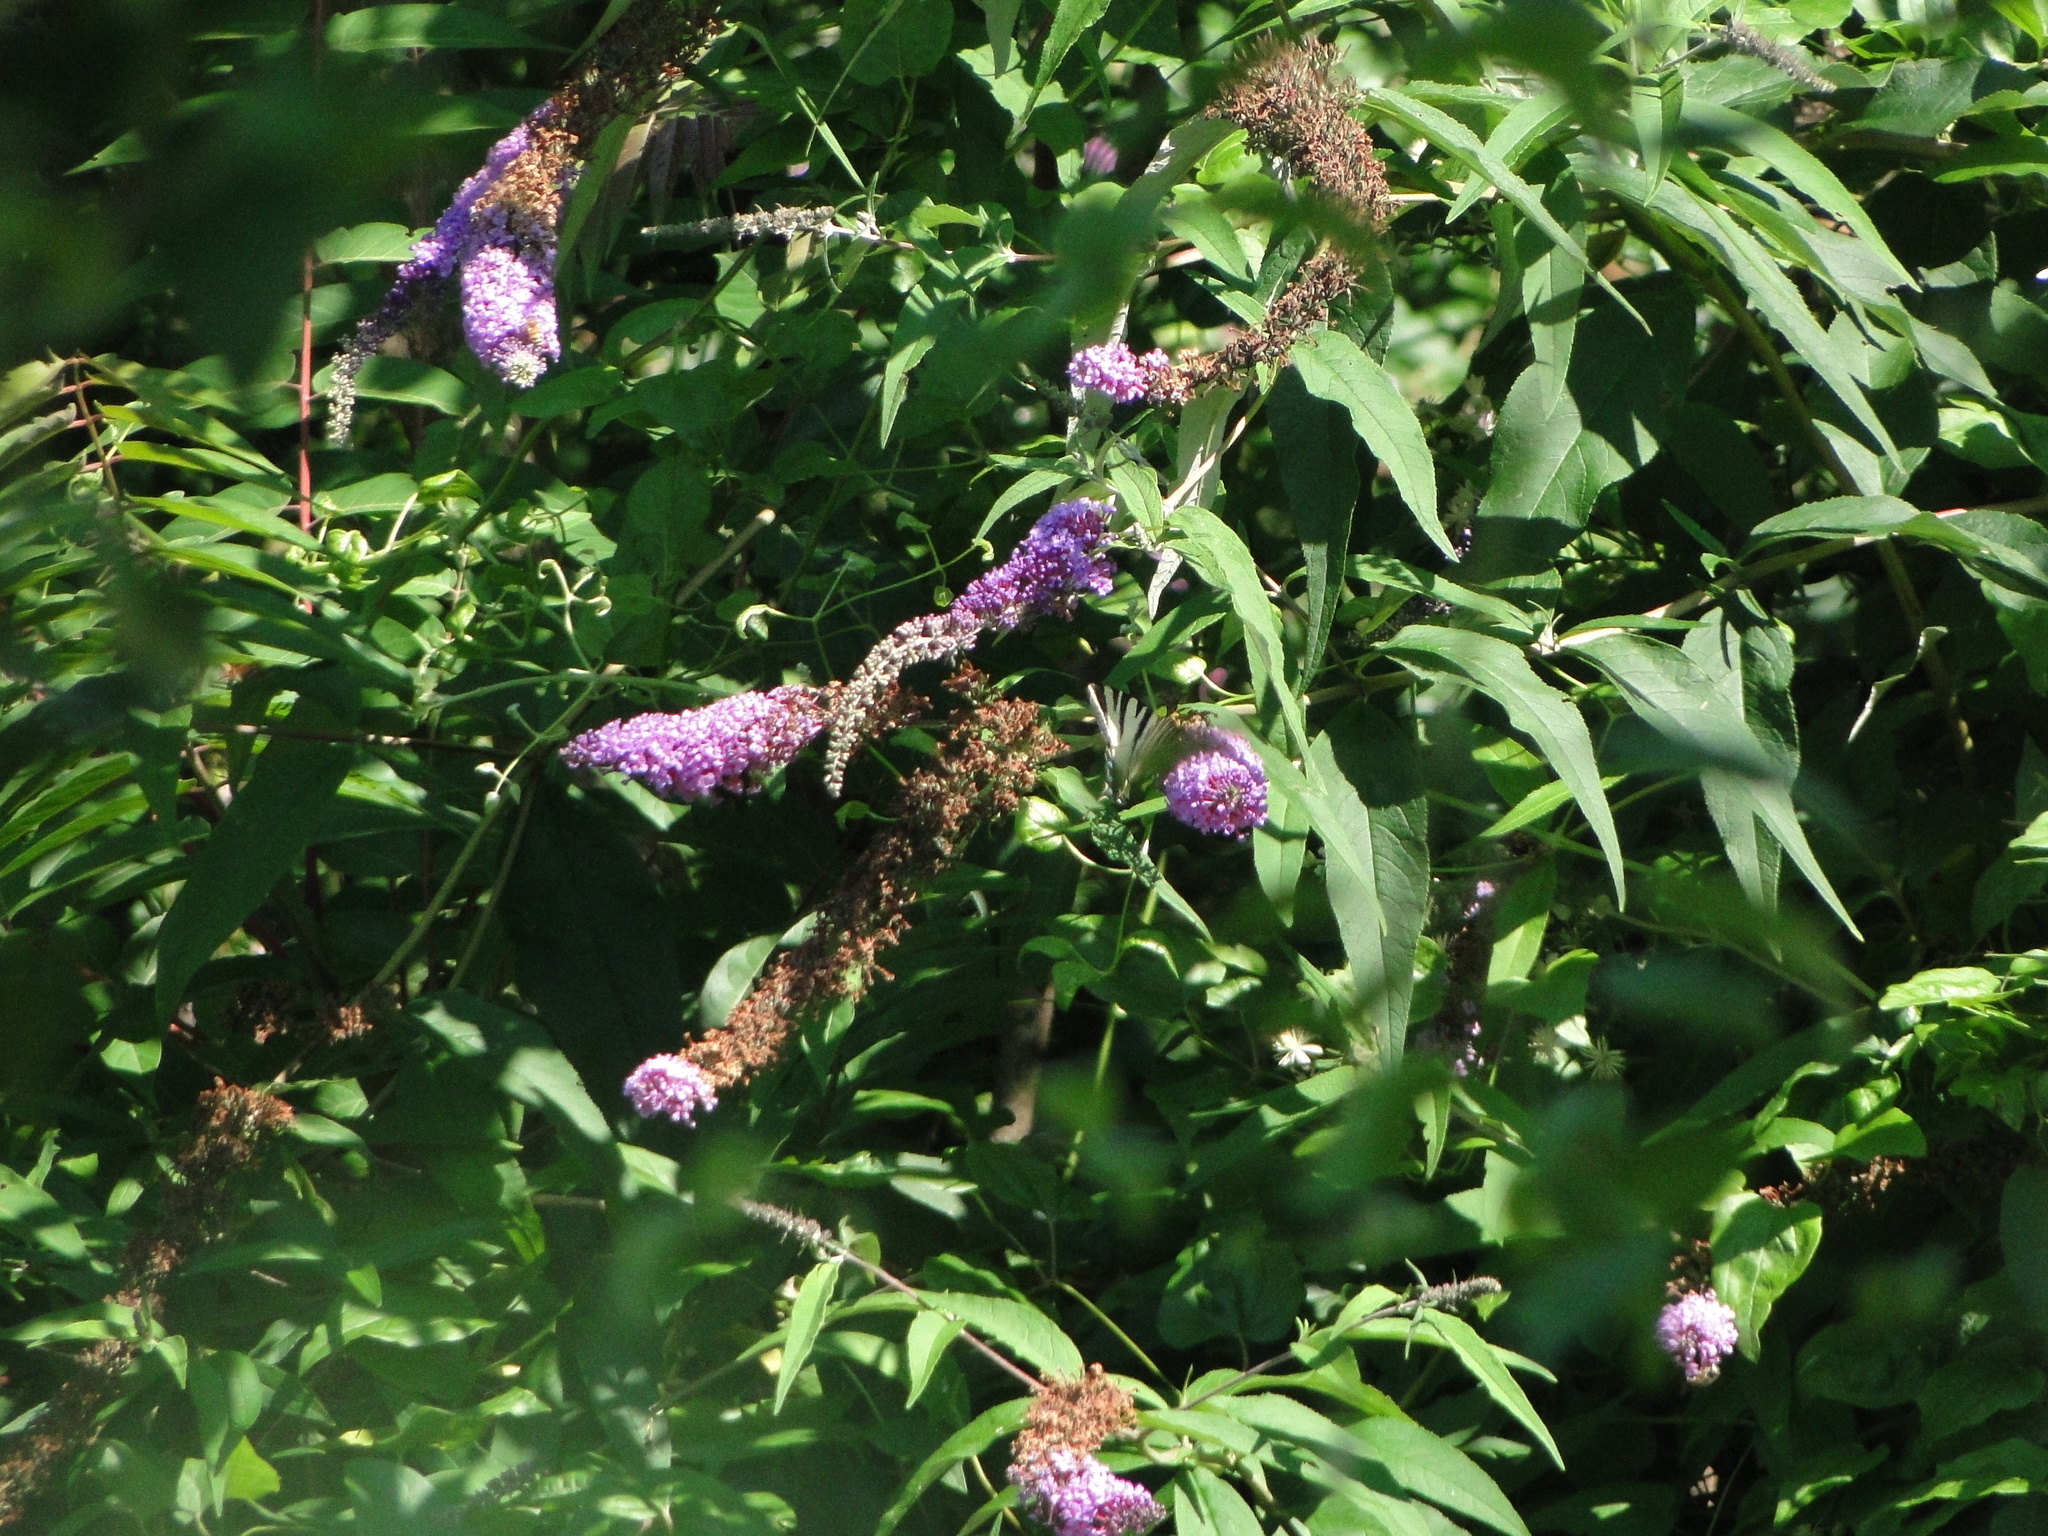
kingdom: Animalia
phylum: Arthropoda
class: Insecta
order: Lepidoptera
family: Papilionidae
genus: Iphiclides
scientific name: Iphiclides podalirius
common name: Scarce swallowtail
